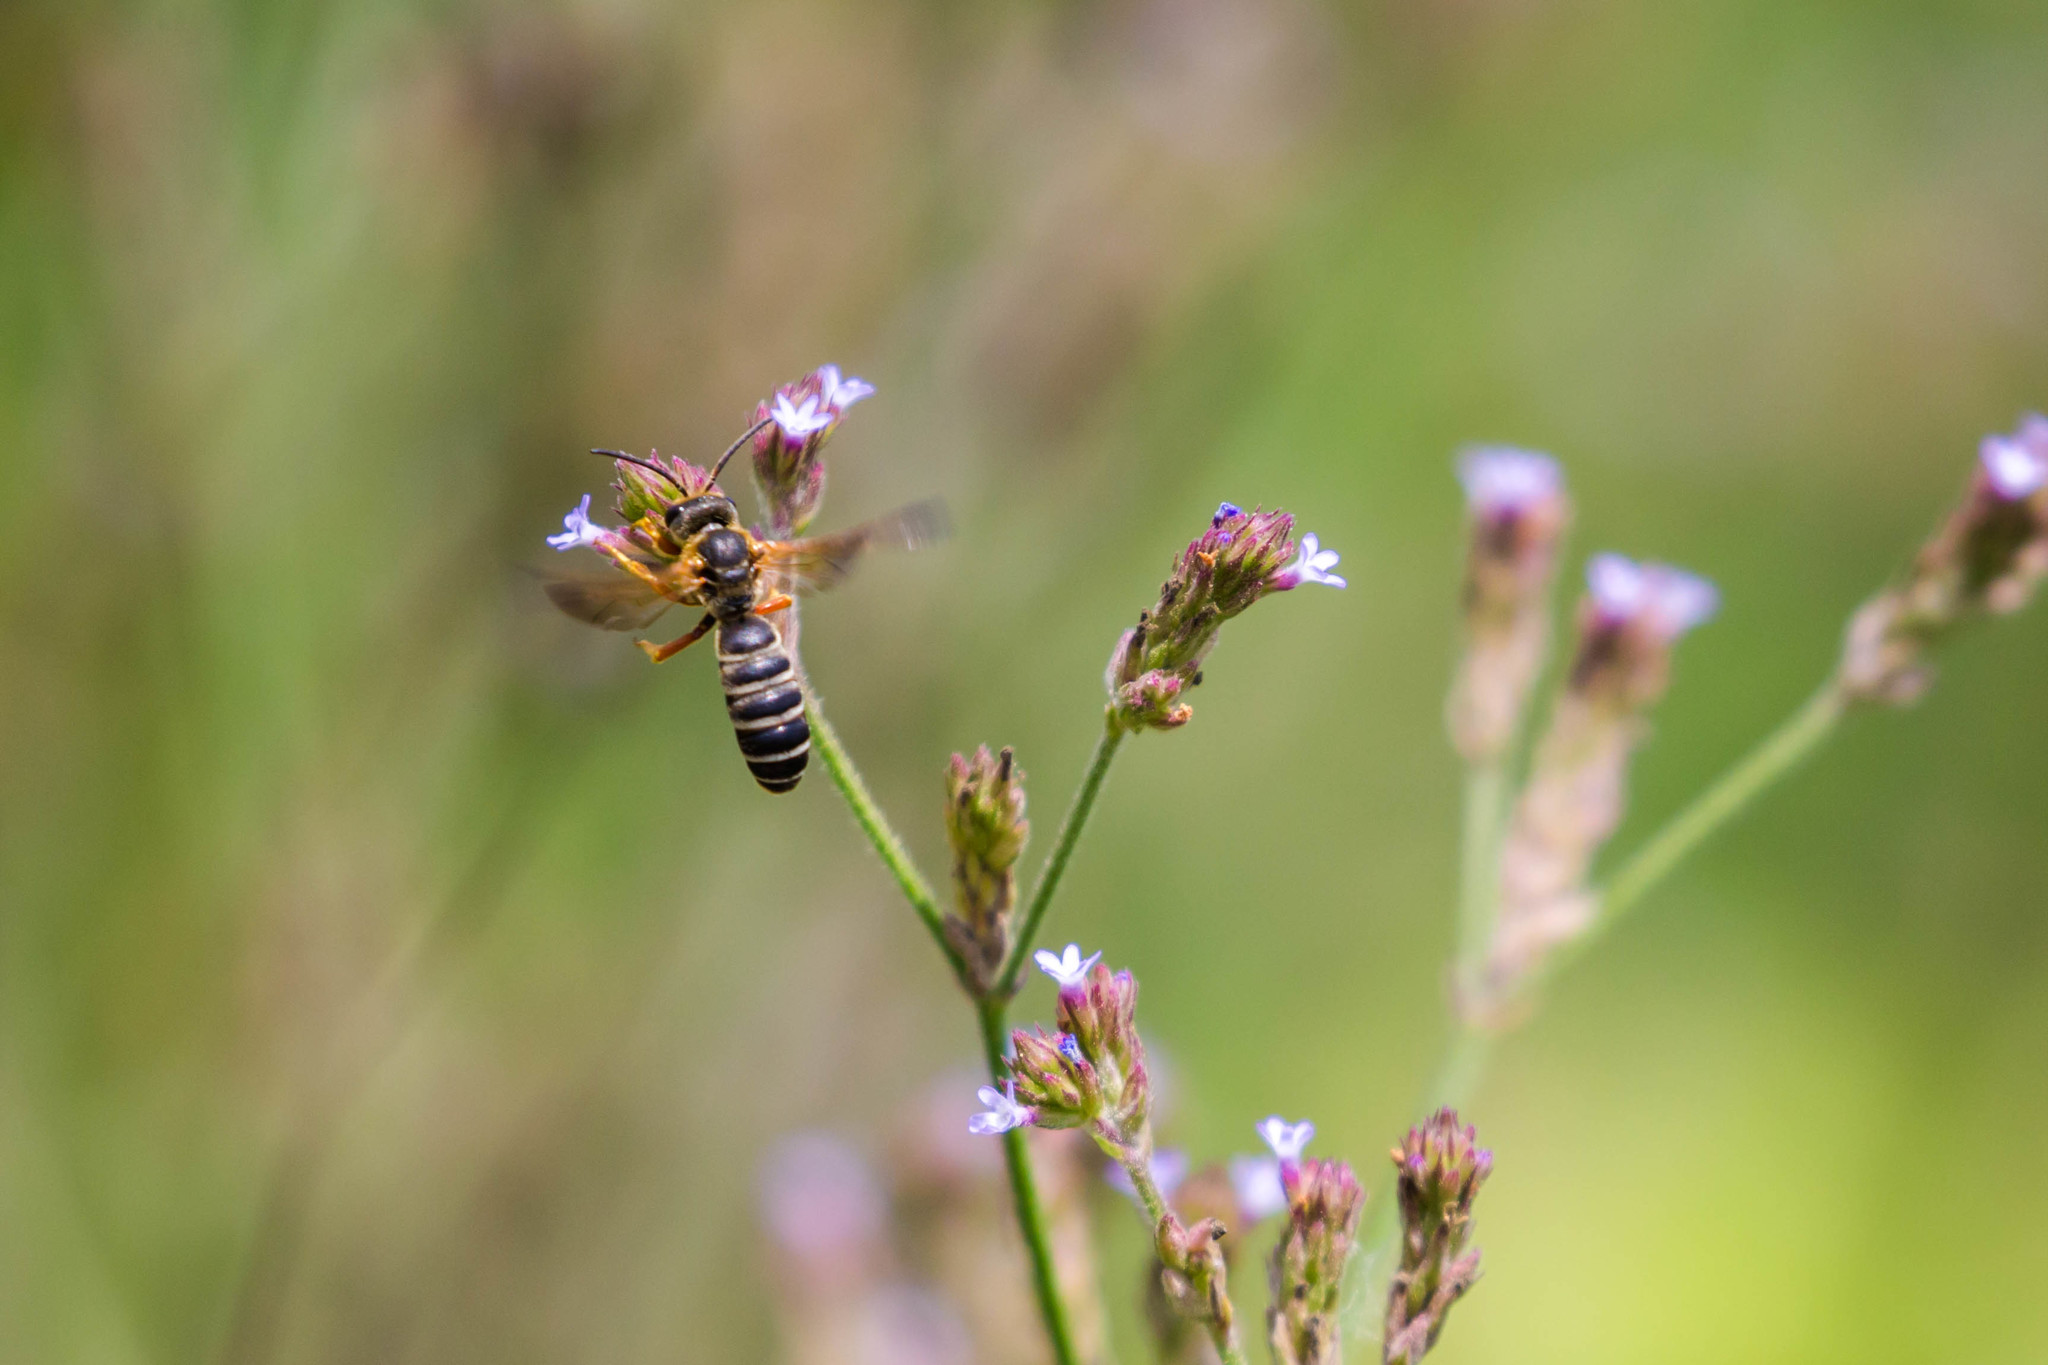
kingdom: Animalia
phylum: Arthropoda
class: Insecta
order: Hymenoptera
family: Halictidae
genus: Halictus
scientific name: Halictus parallelus
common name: Parallel-striped sweat bee
